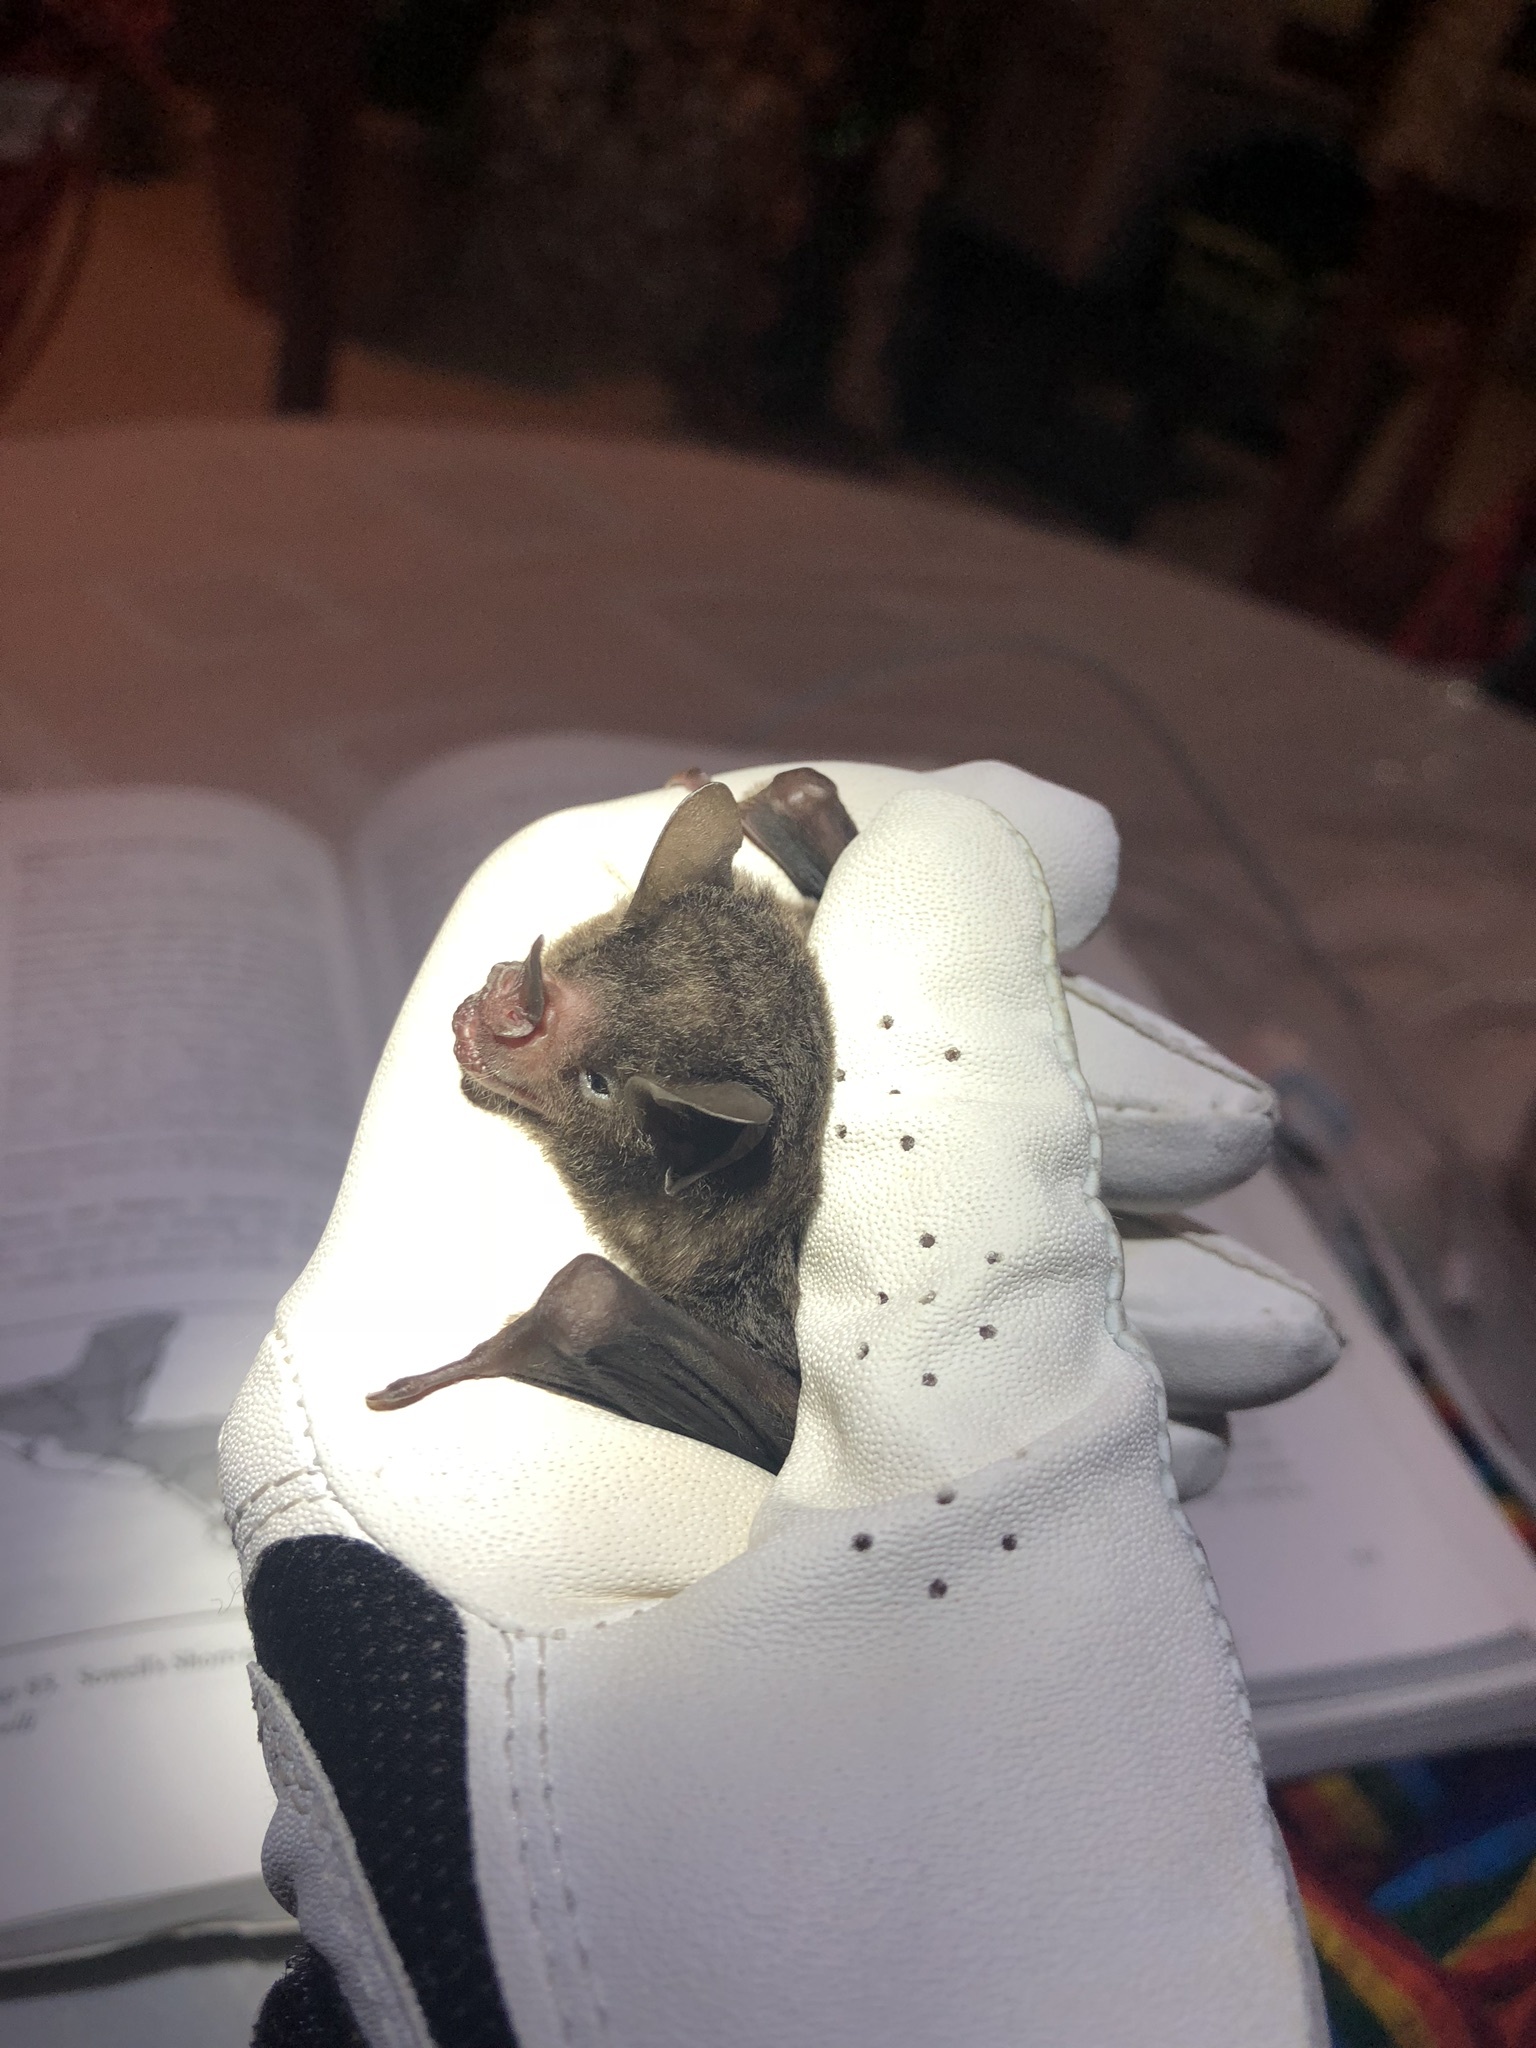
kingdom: Animalia
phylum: Chordata
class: Mammalia
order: Chiroptera
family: Phyllostomidae
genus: Carollia
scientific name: Carollia sowelli
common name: Sowell’s short-tailed bat
